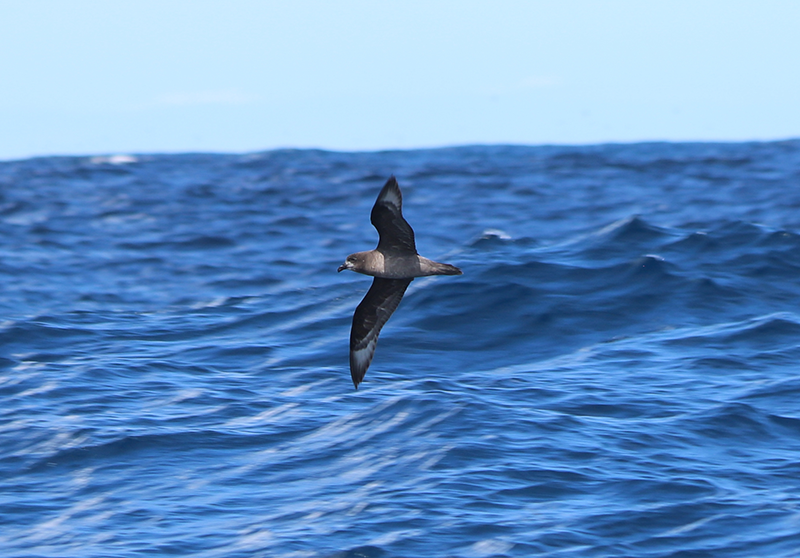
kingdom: Animalia
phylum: Chordata
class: Aves
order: Procellariiformes
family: Procellariidae
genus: Pterodroma
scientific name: Pterodroma solandri
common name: Providence petrel
